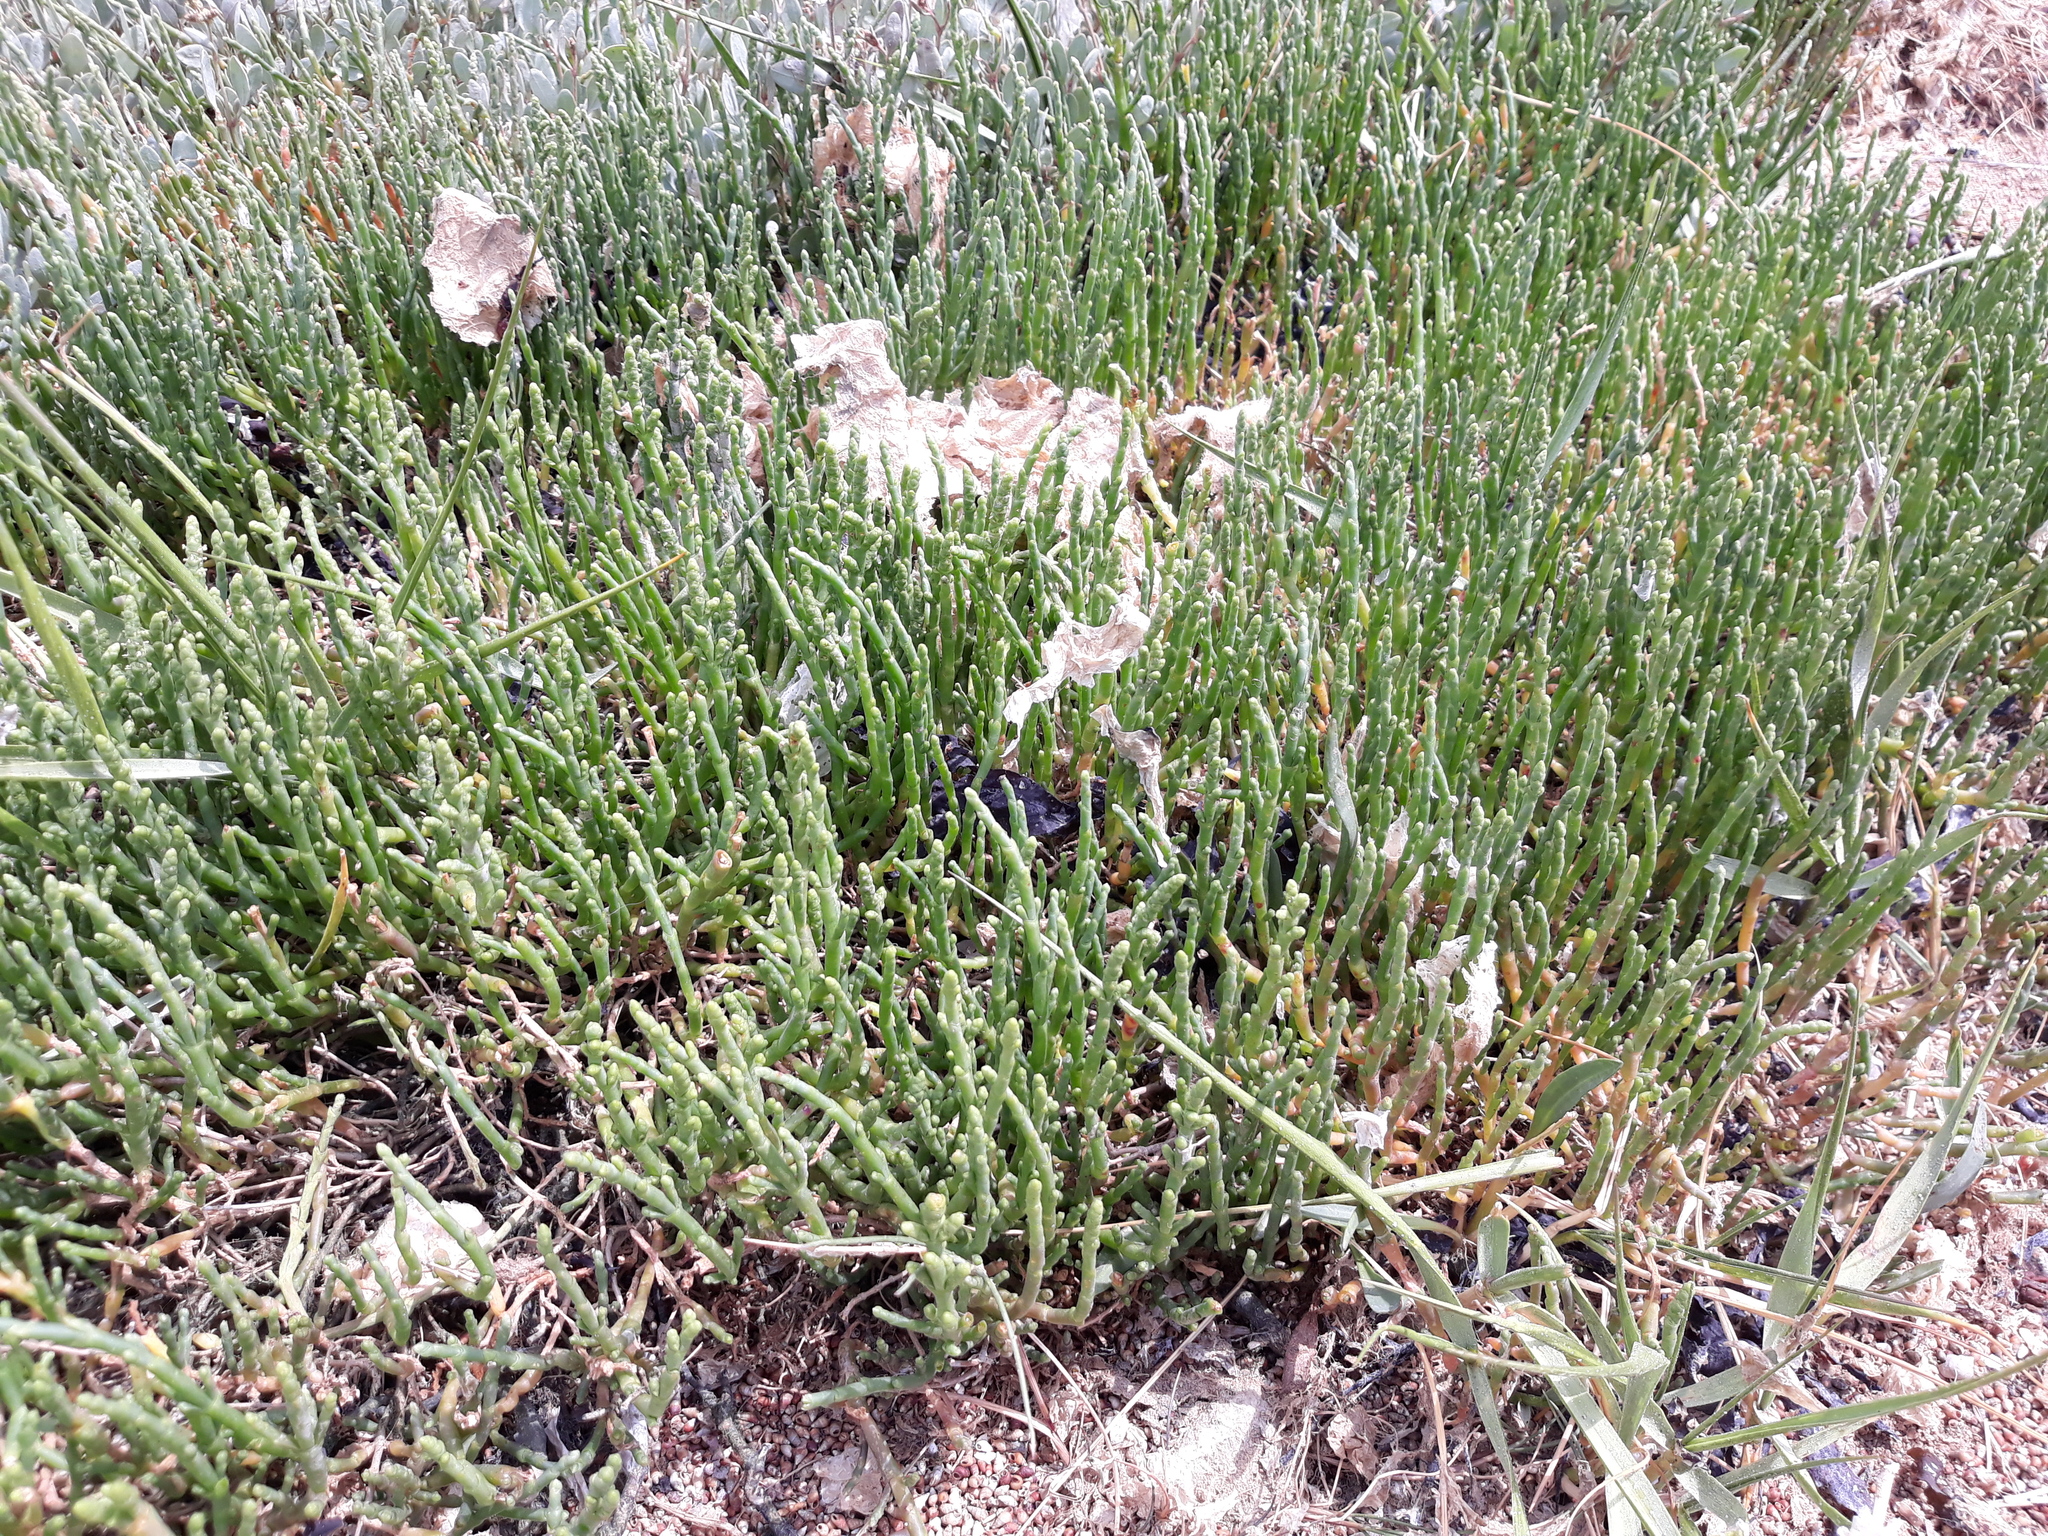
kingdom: Plantae
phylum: Tracheophyta
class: Magnoliopsida
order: Caryophyllales
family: Amaranthaceae
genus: Salicornia
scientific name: Salicornia europaea
